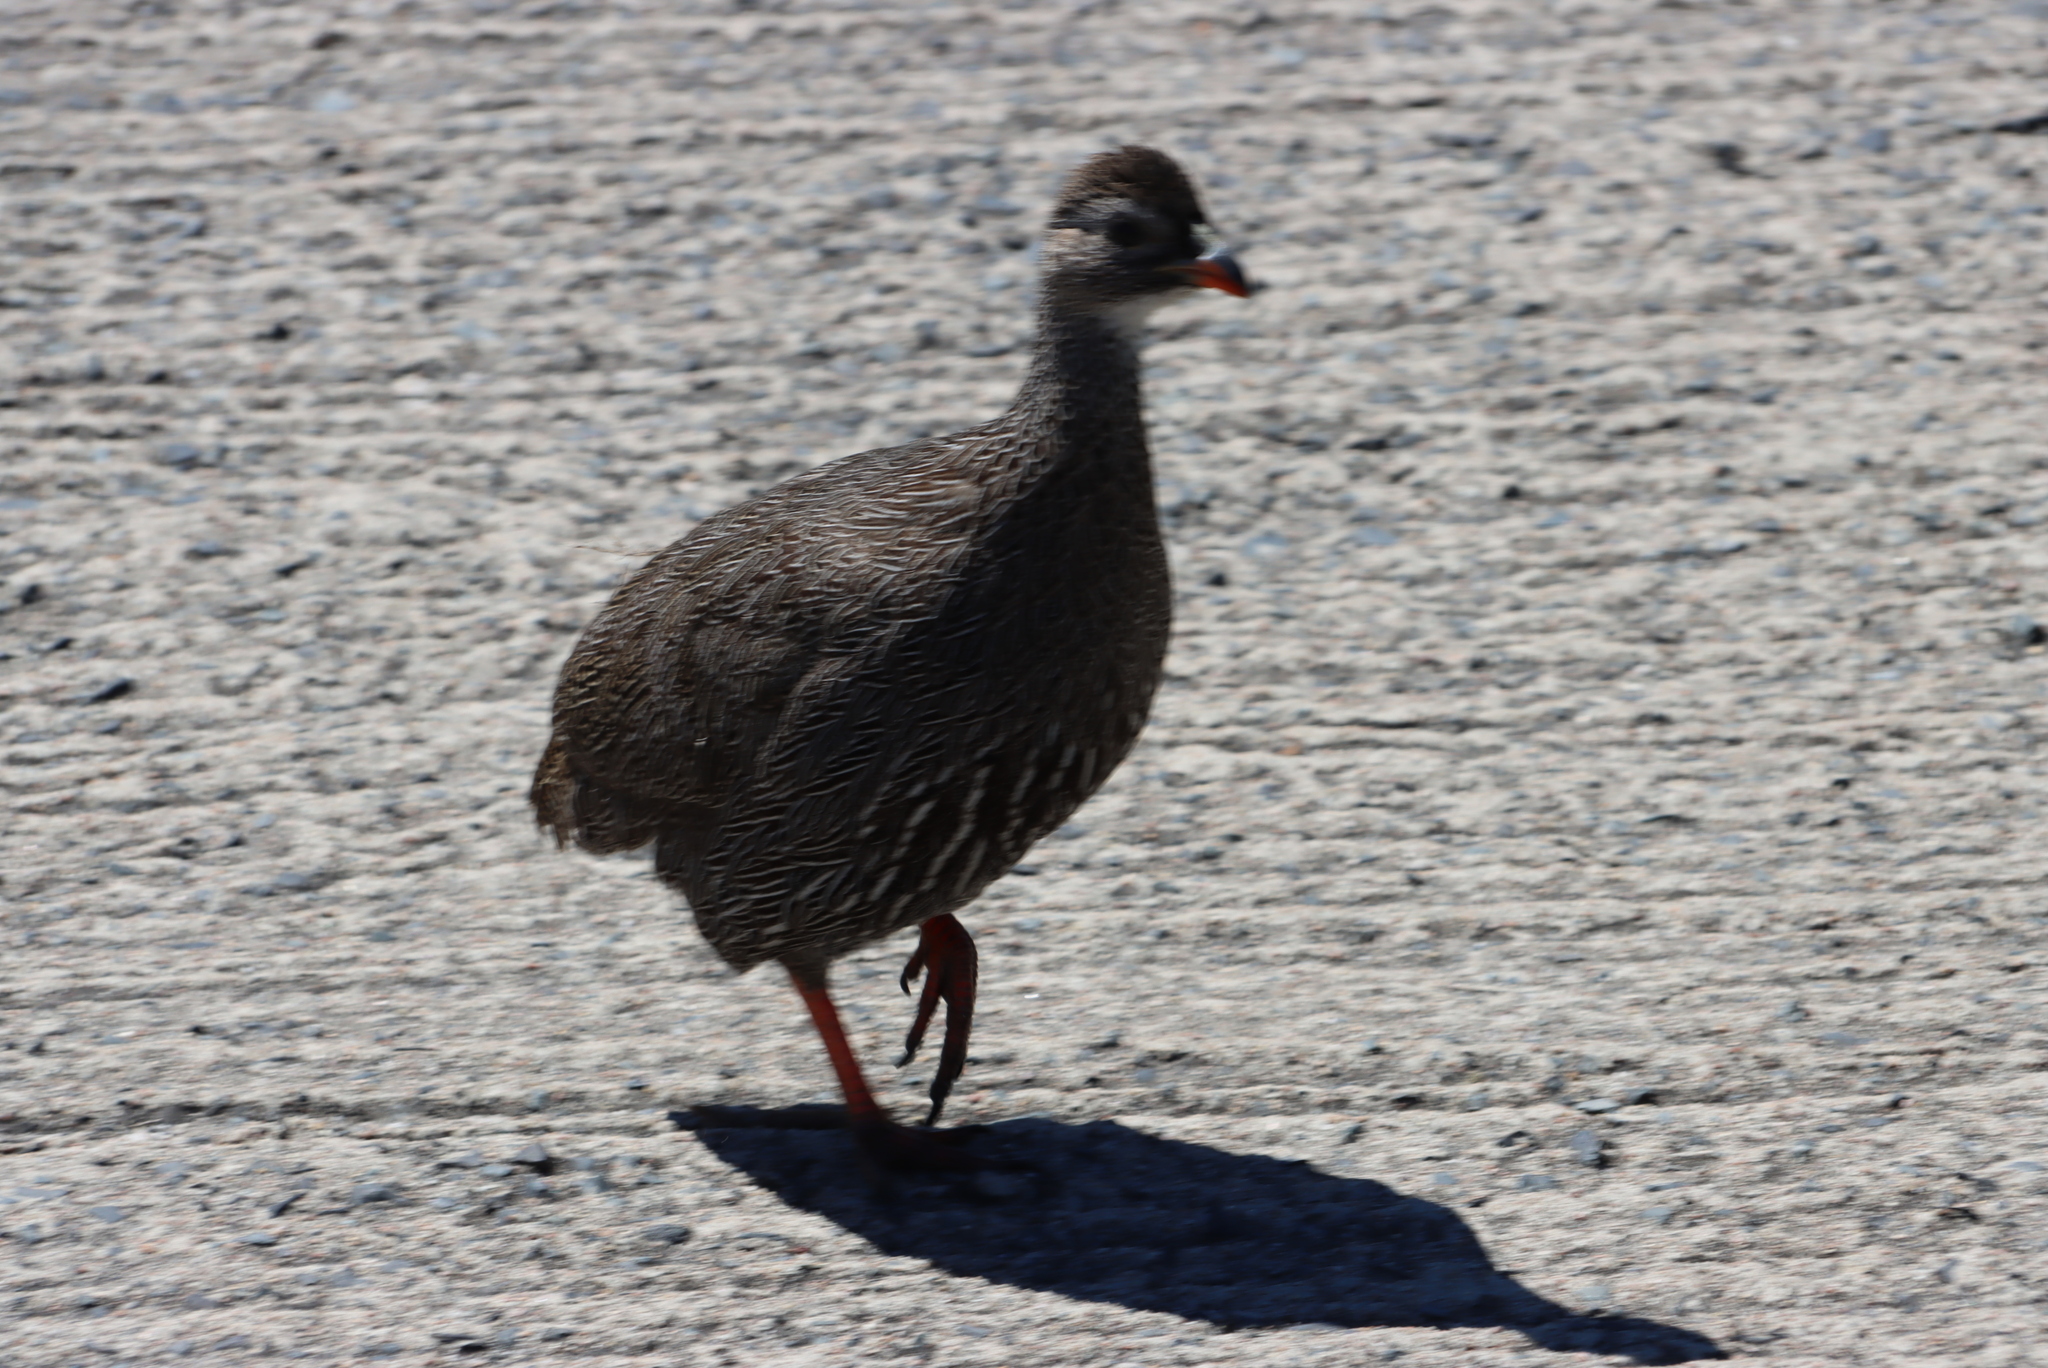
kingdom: Animalia
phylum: Chordata
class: Aves
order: Galliformes
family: Phasianidae
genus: Pternistis
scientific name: Pternistis capensis
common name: Cape spurfowl
